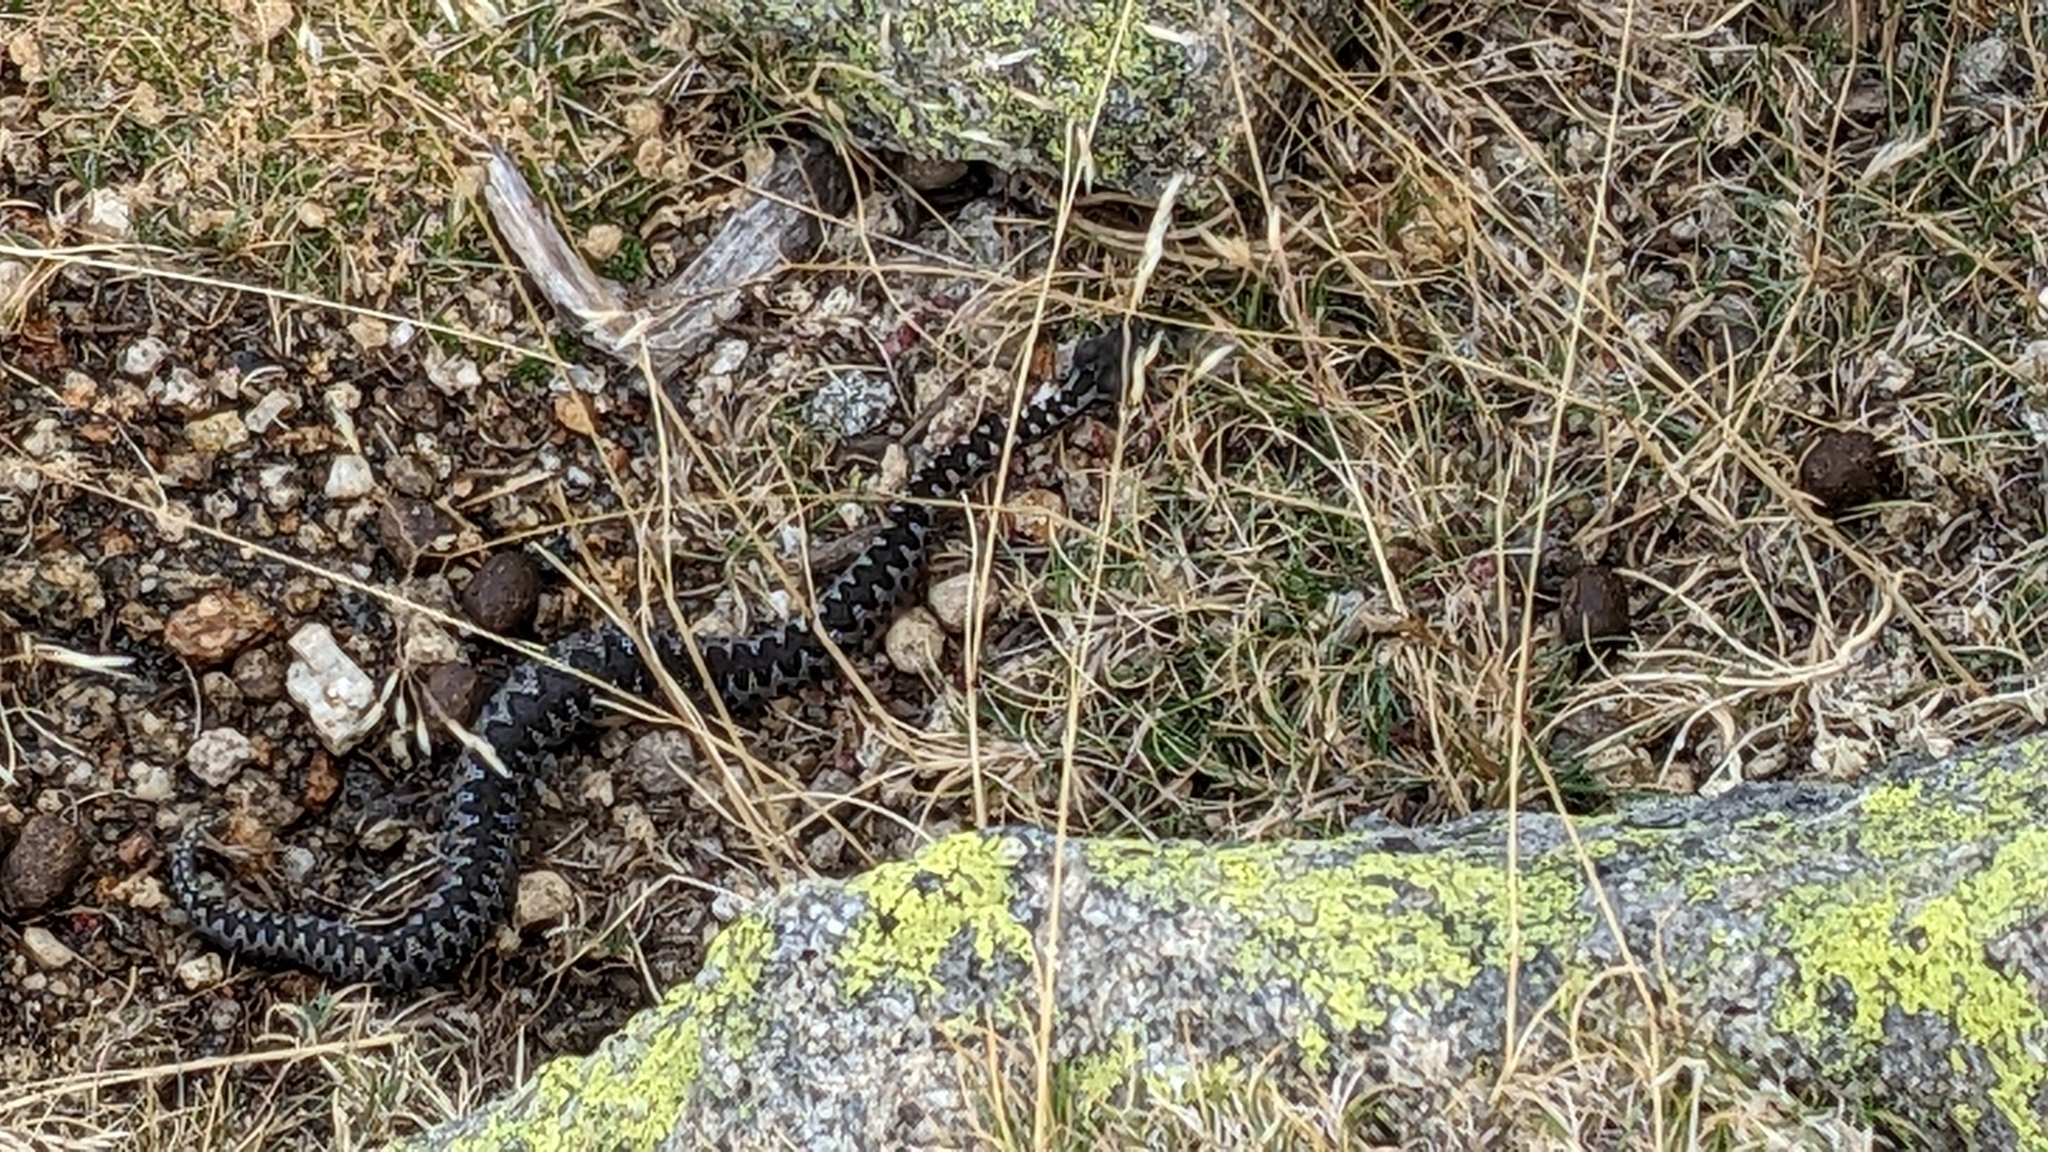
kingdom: Animalia
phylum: Chordata
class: Squamata
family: Viperidae
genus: Vipera
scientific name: Vipera latastei
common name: Lataste's viper
